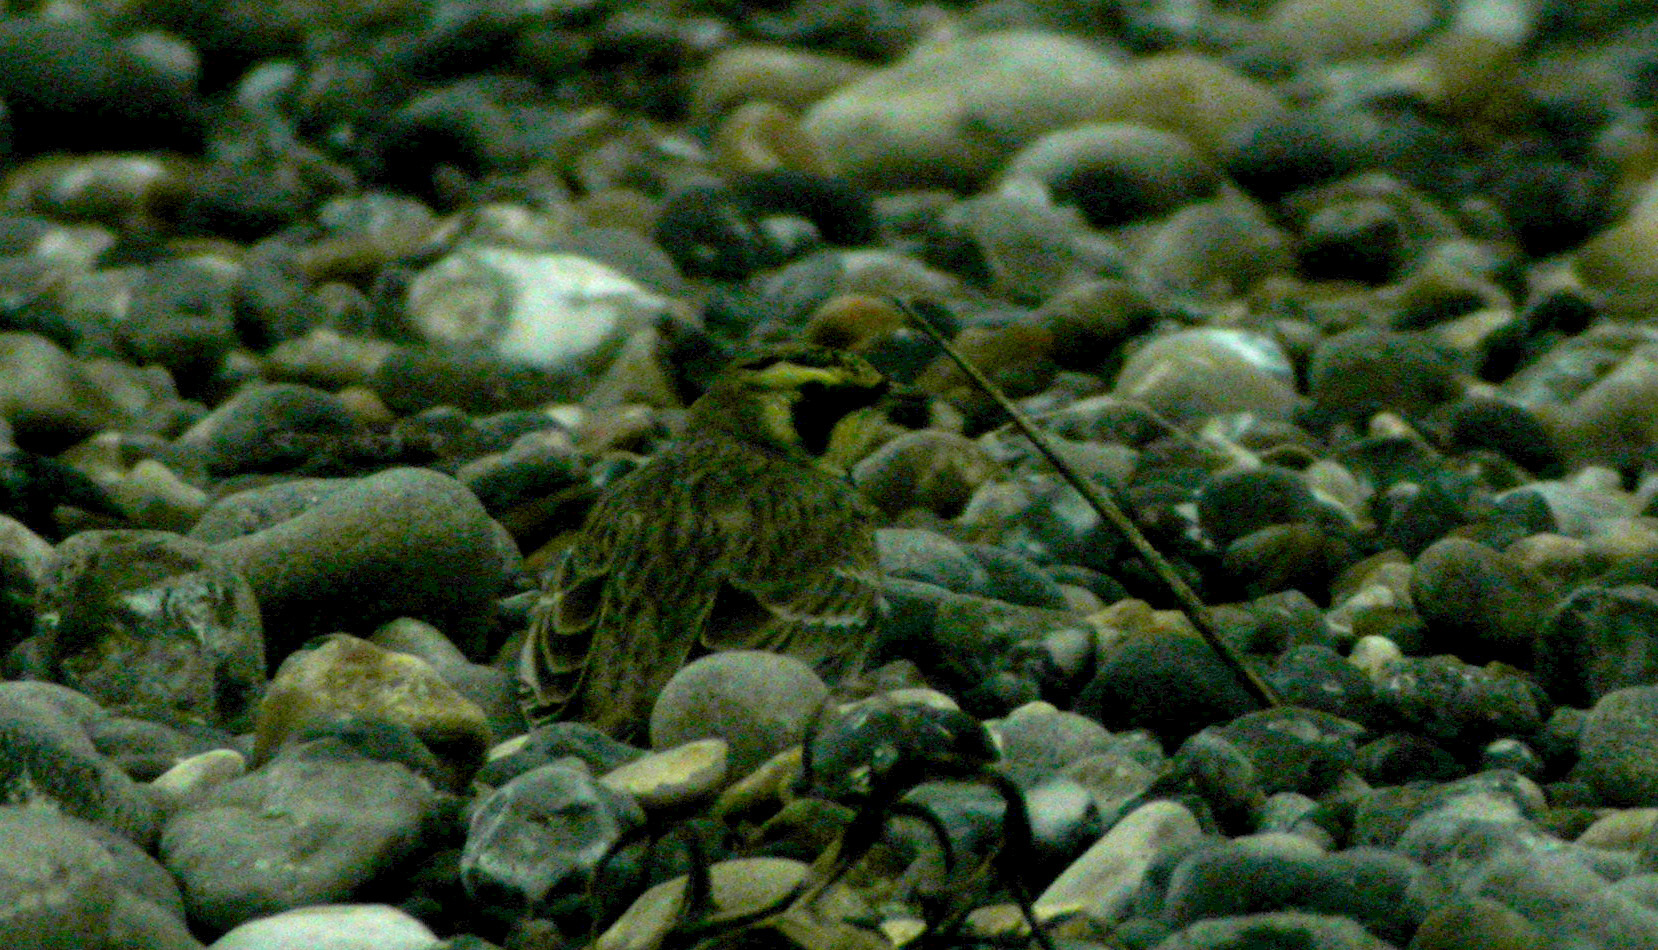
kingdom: Animalia
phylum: Chordata
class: Aves
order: Passeriformes
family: Alaudidae
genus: Eremophila
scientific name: Eremophila alpestris
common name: Horned lark
